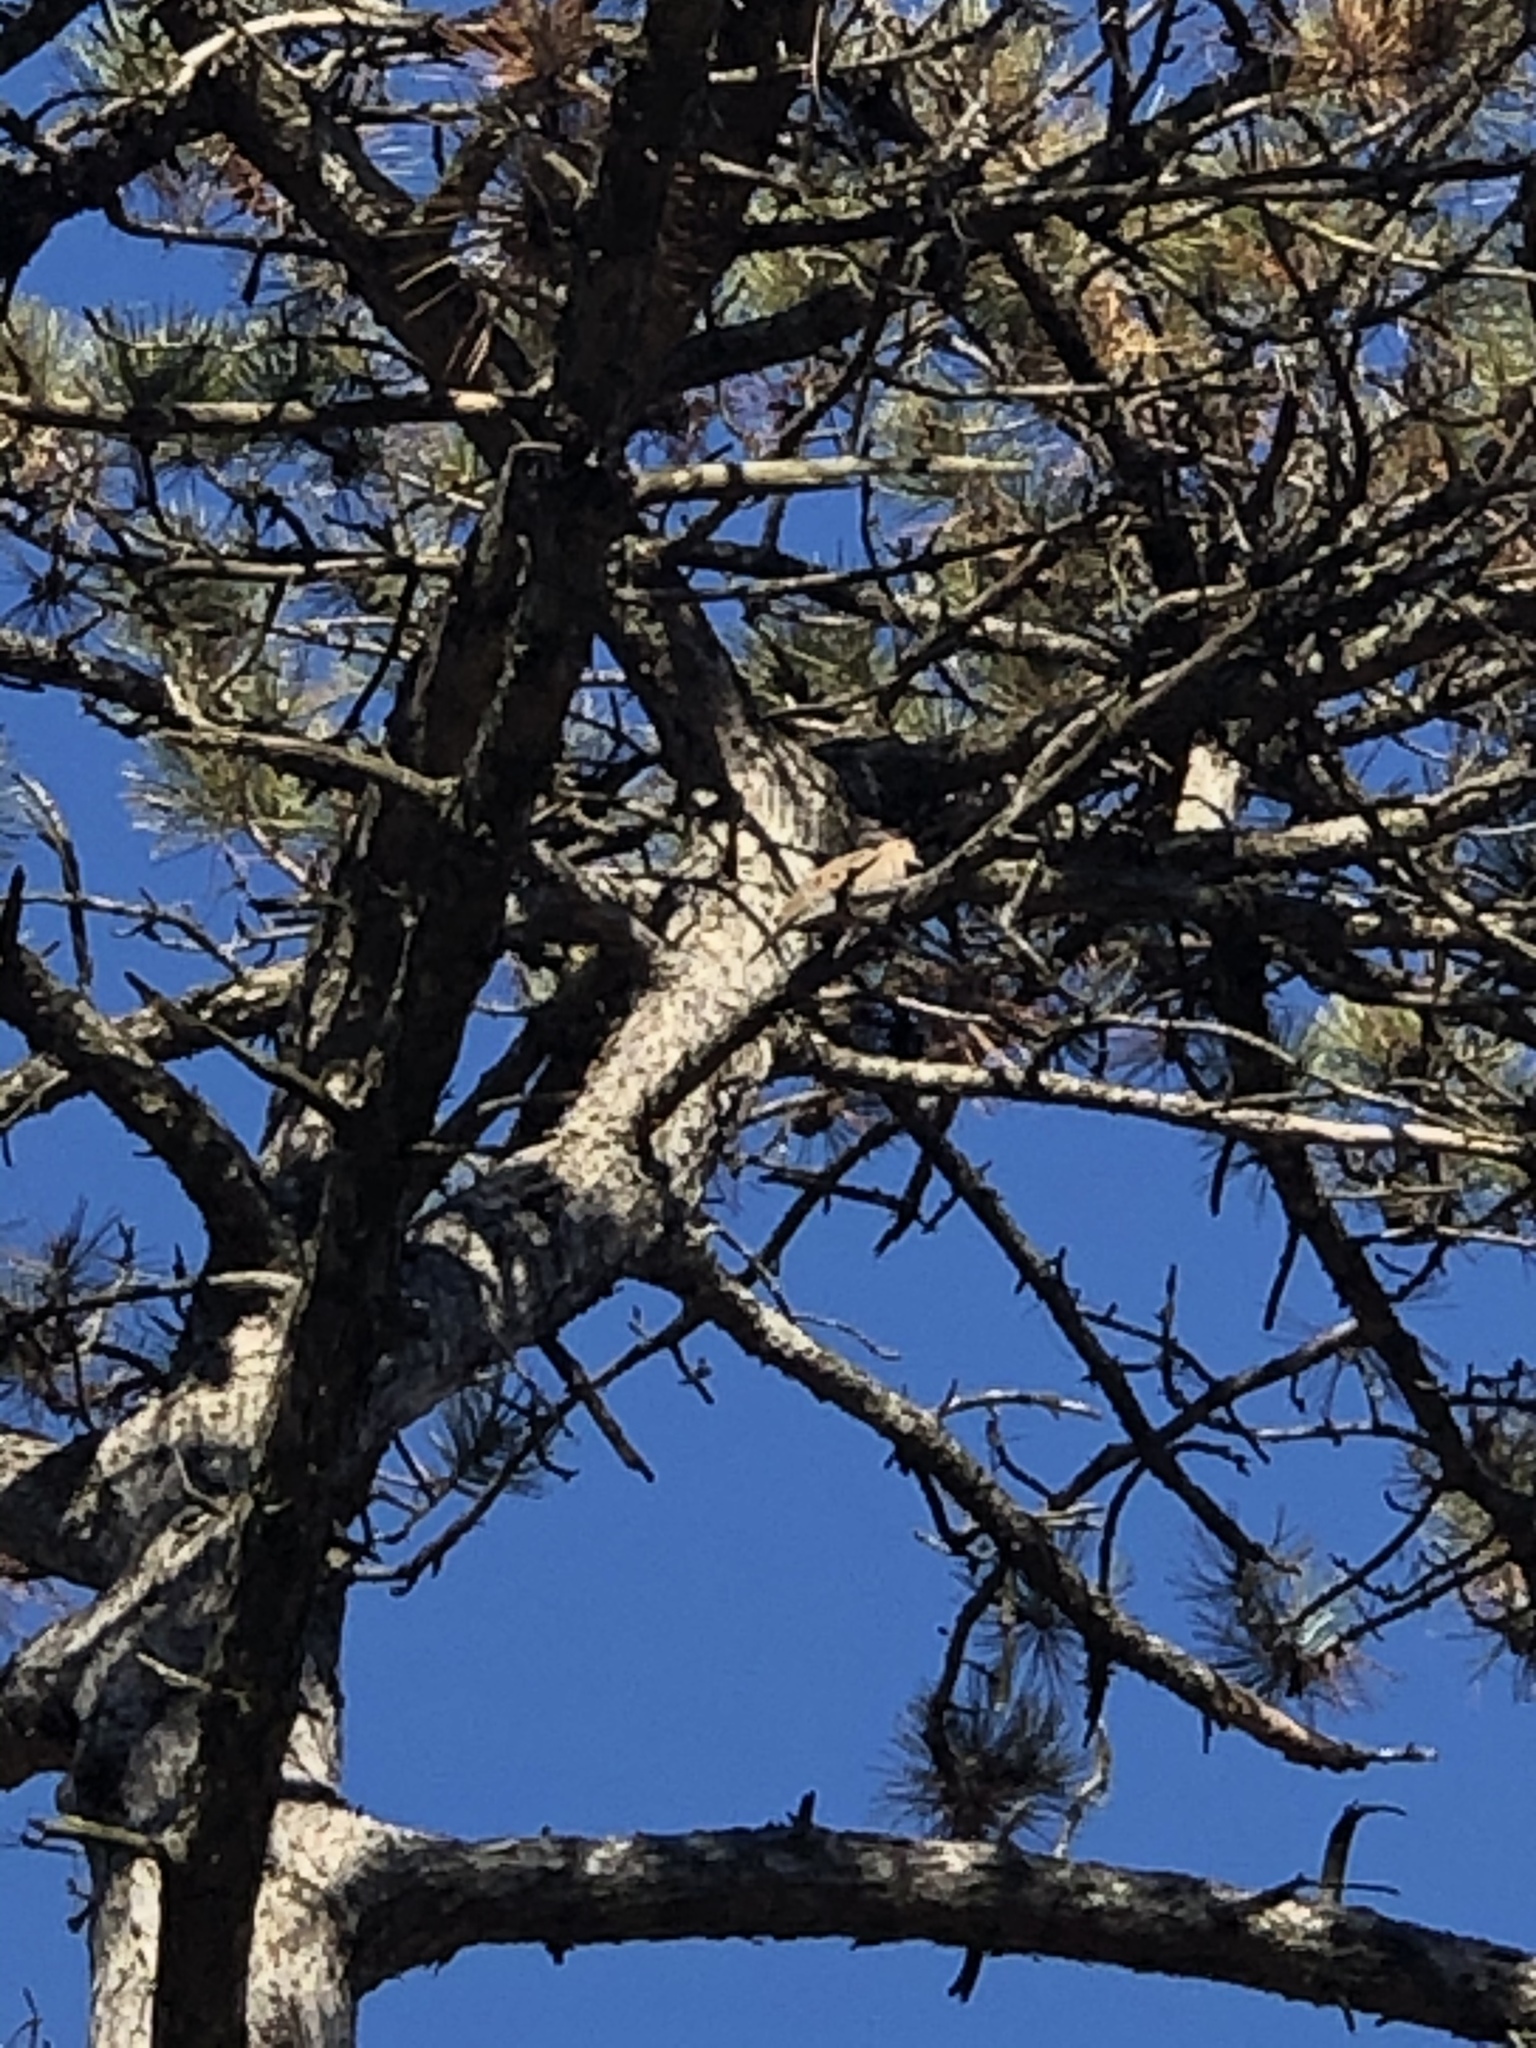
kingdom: Animalia
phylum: Chordata
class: Aves
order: Columbiformes
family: Columbidae
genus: Zenaida
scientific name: Zenaida macroura
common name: Mourning dove
